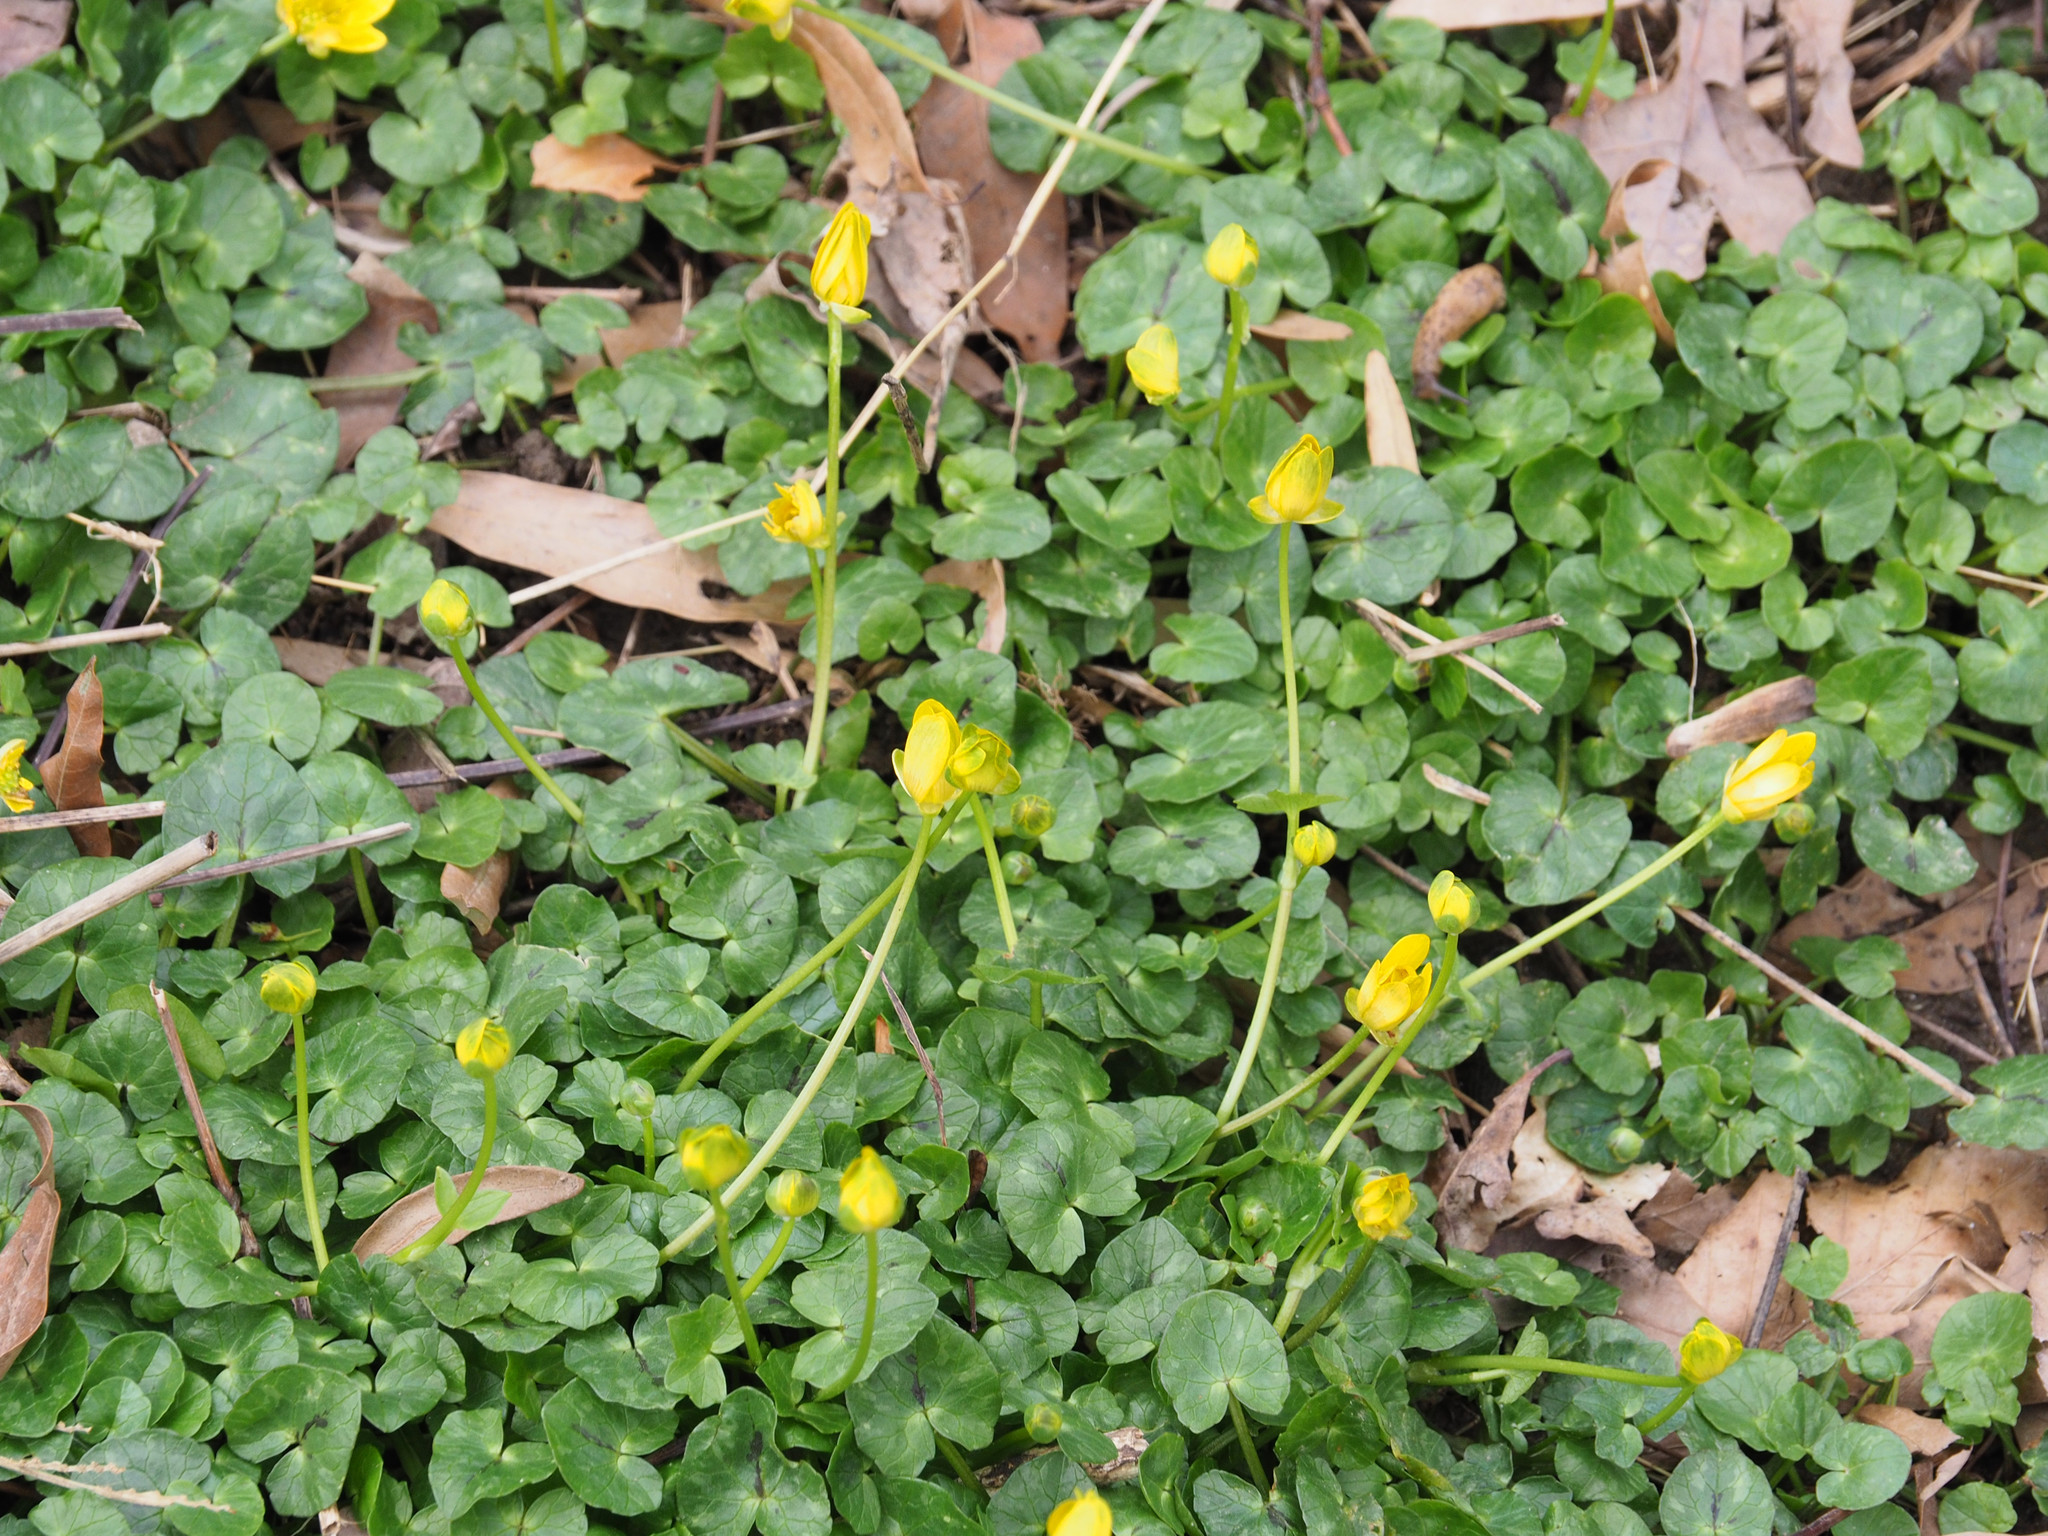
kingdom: Plantae
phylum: Tracheophyta
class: Magnoliopsida
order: Ranunculales
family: Ranunculaceae
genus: Ficaria
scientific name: Ficaria verna
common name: Lesser celandine
